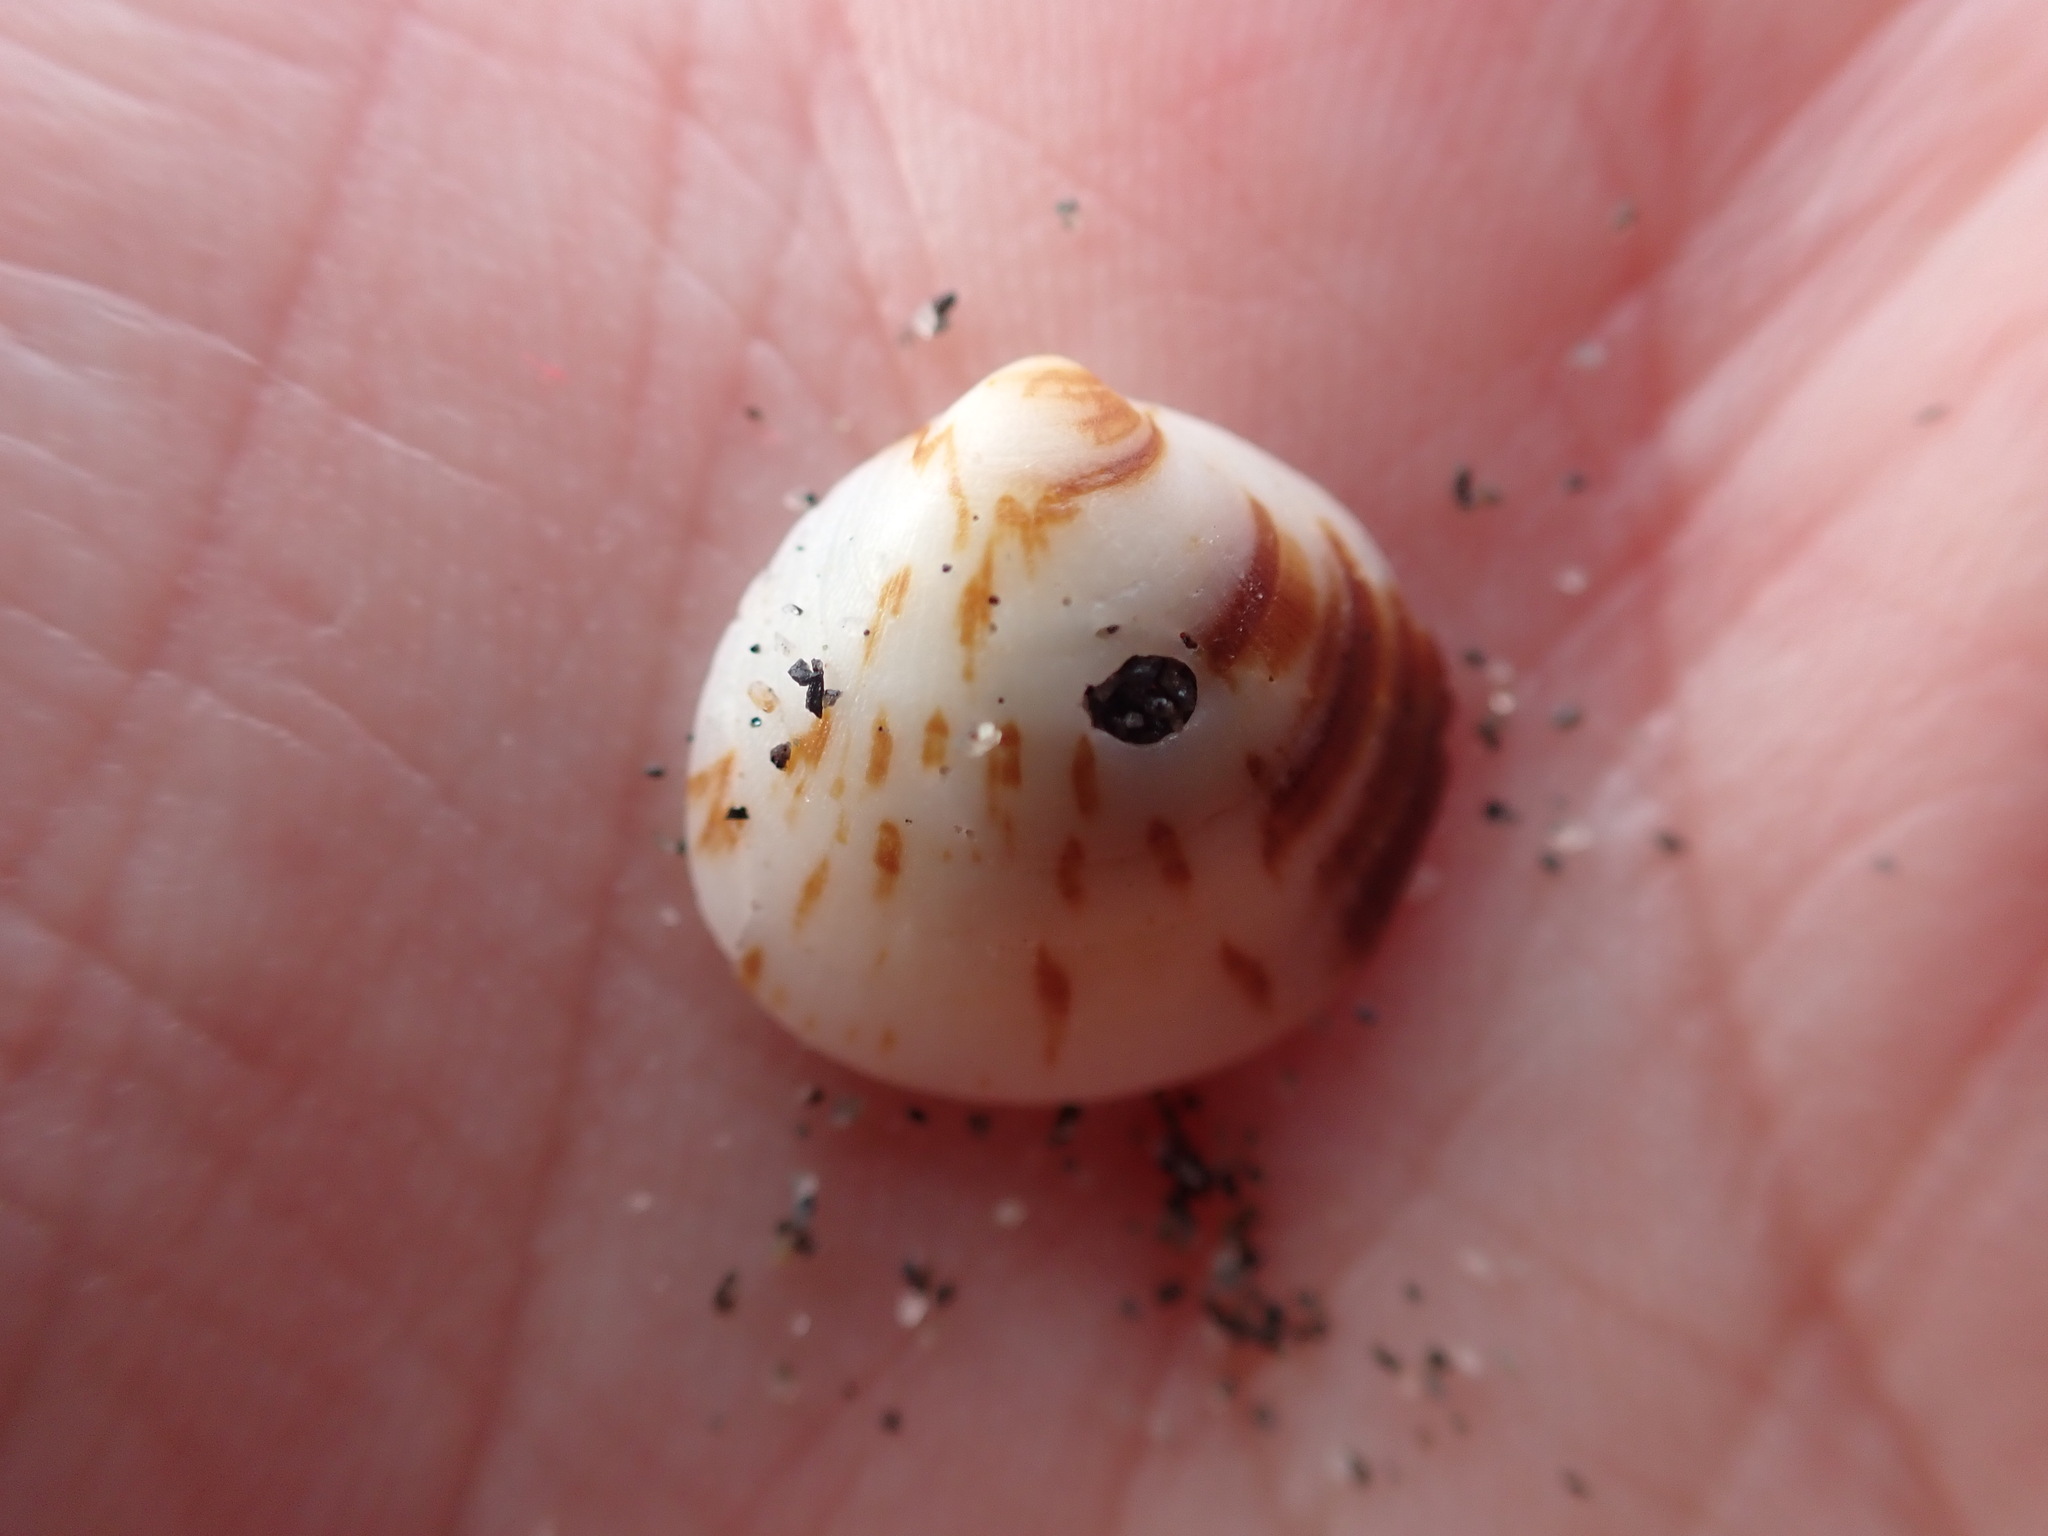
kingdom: Animalia
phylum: Mollusca
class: Bivalvia
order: Arcida
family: Glycymerididae
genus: Glycymeris
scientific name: Glycymeris modesta
